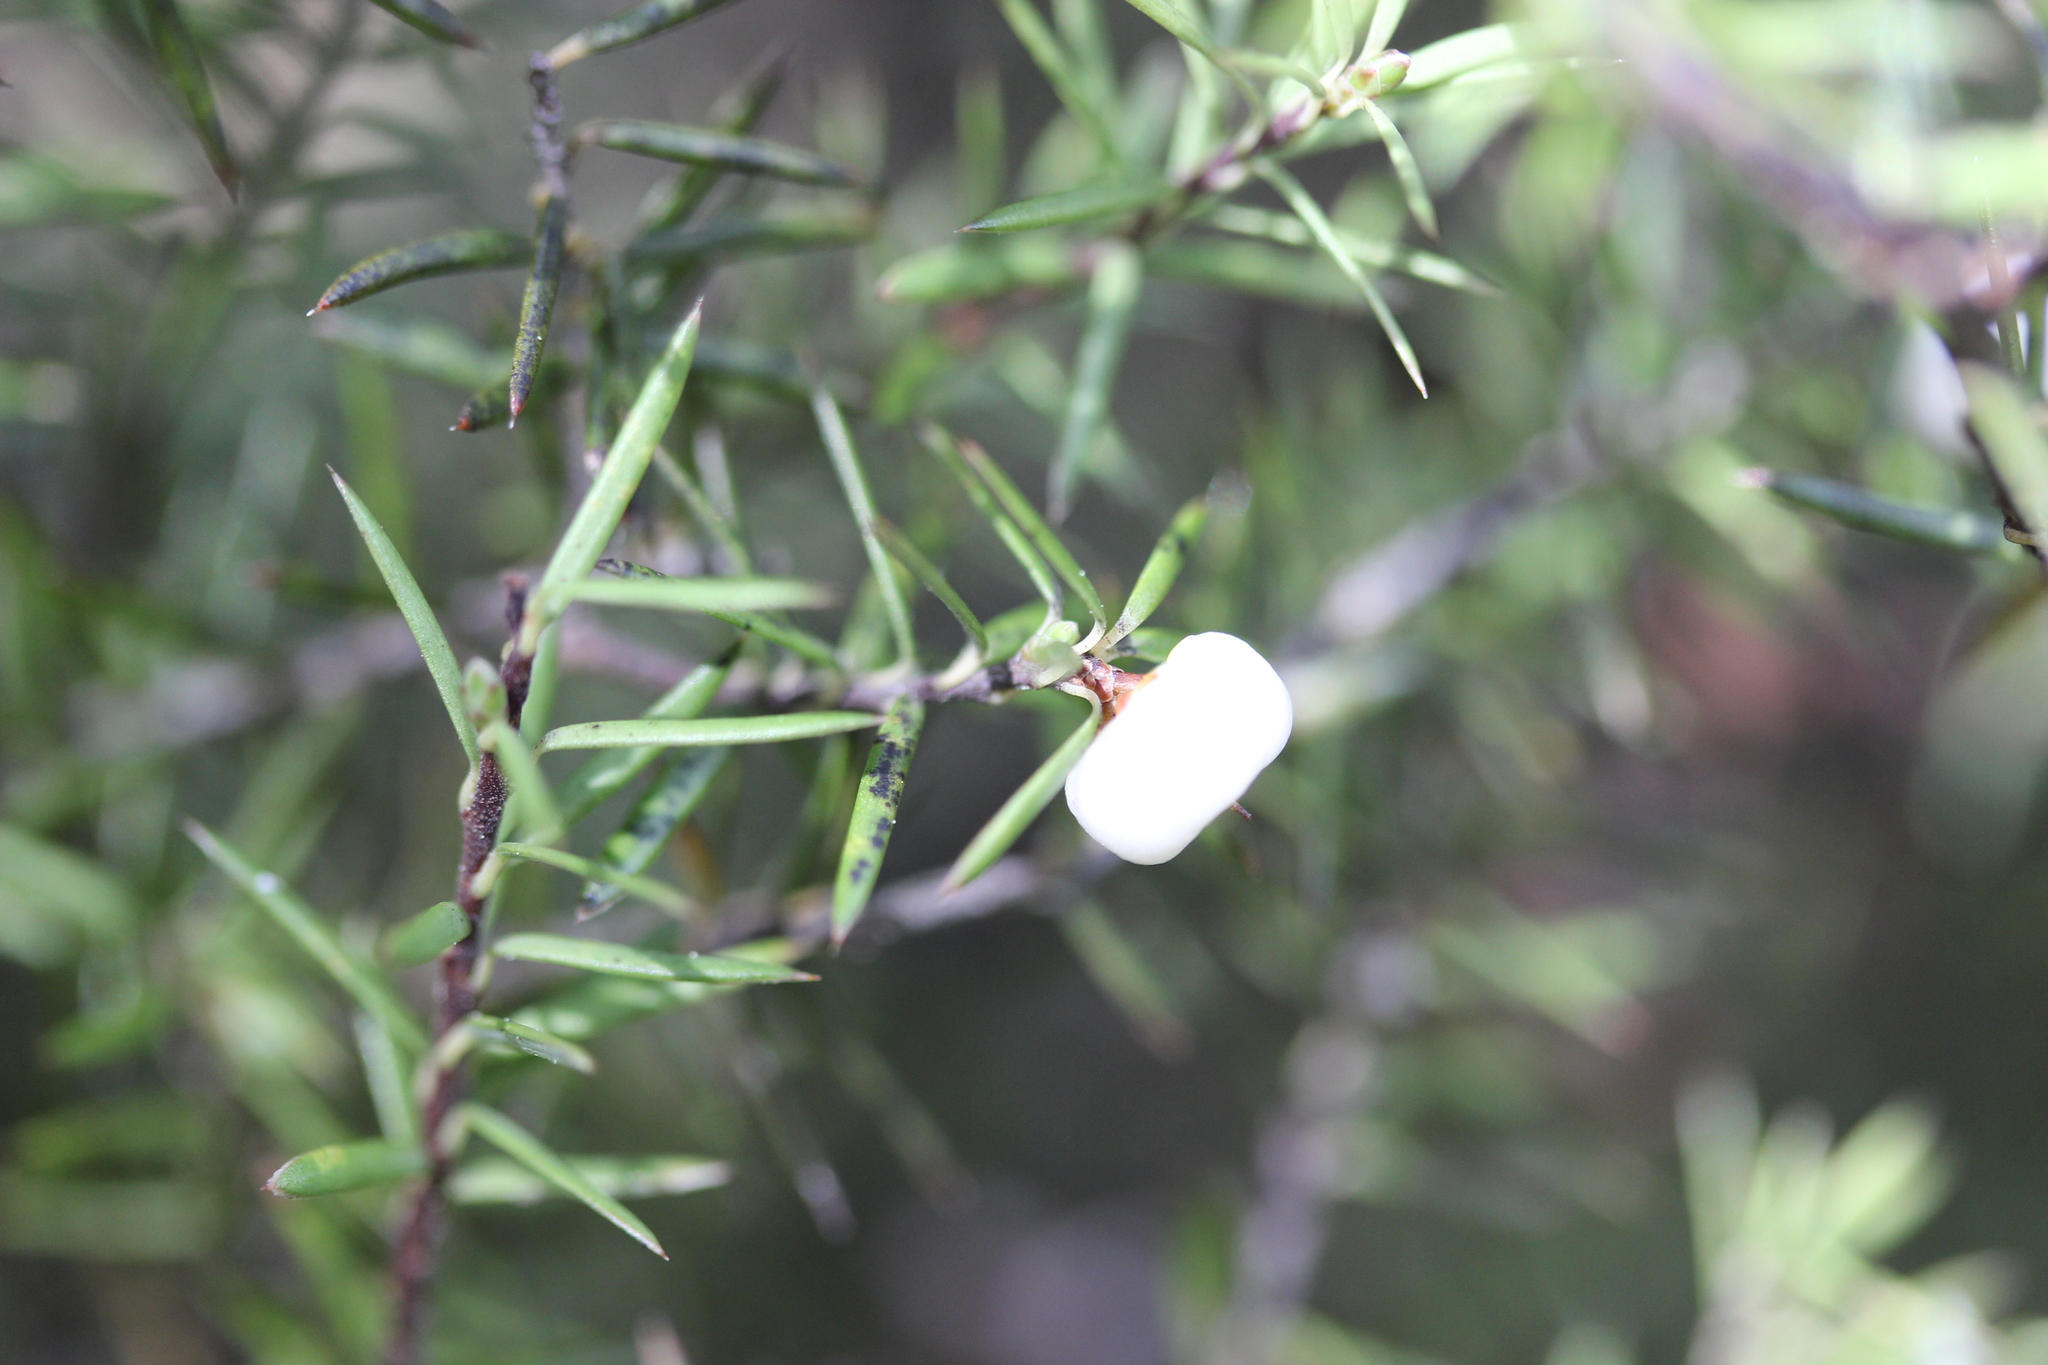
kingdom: Plantae
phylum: Tracheophyta
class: Magnoliopsida
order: Ericales
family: Ericaceae
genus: Leptecophylla
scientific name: Leptecophylla juniperina
